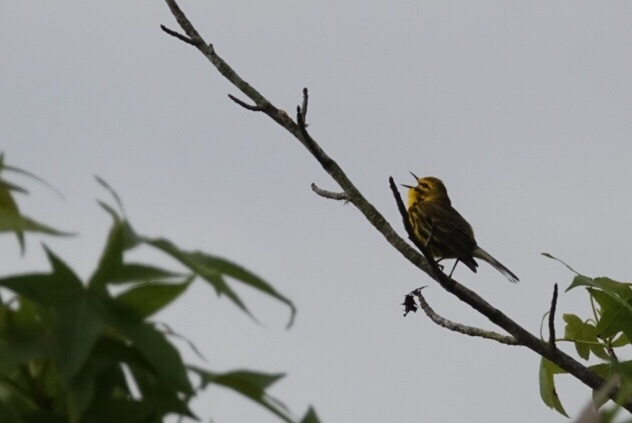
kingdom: Animalia
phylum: Chordata
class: Aves
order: Passeriformes
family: Parulidae
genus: Setophaga
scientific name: Setophaga discolor
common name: Prairie warbler
